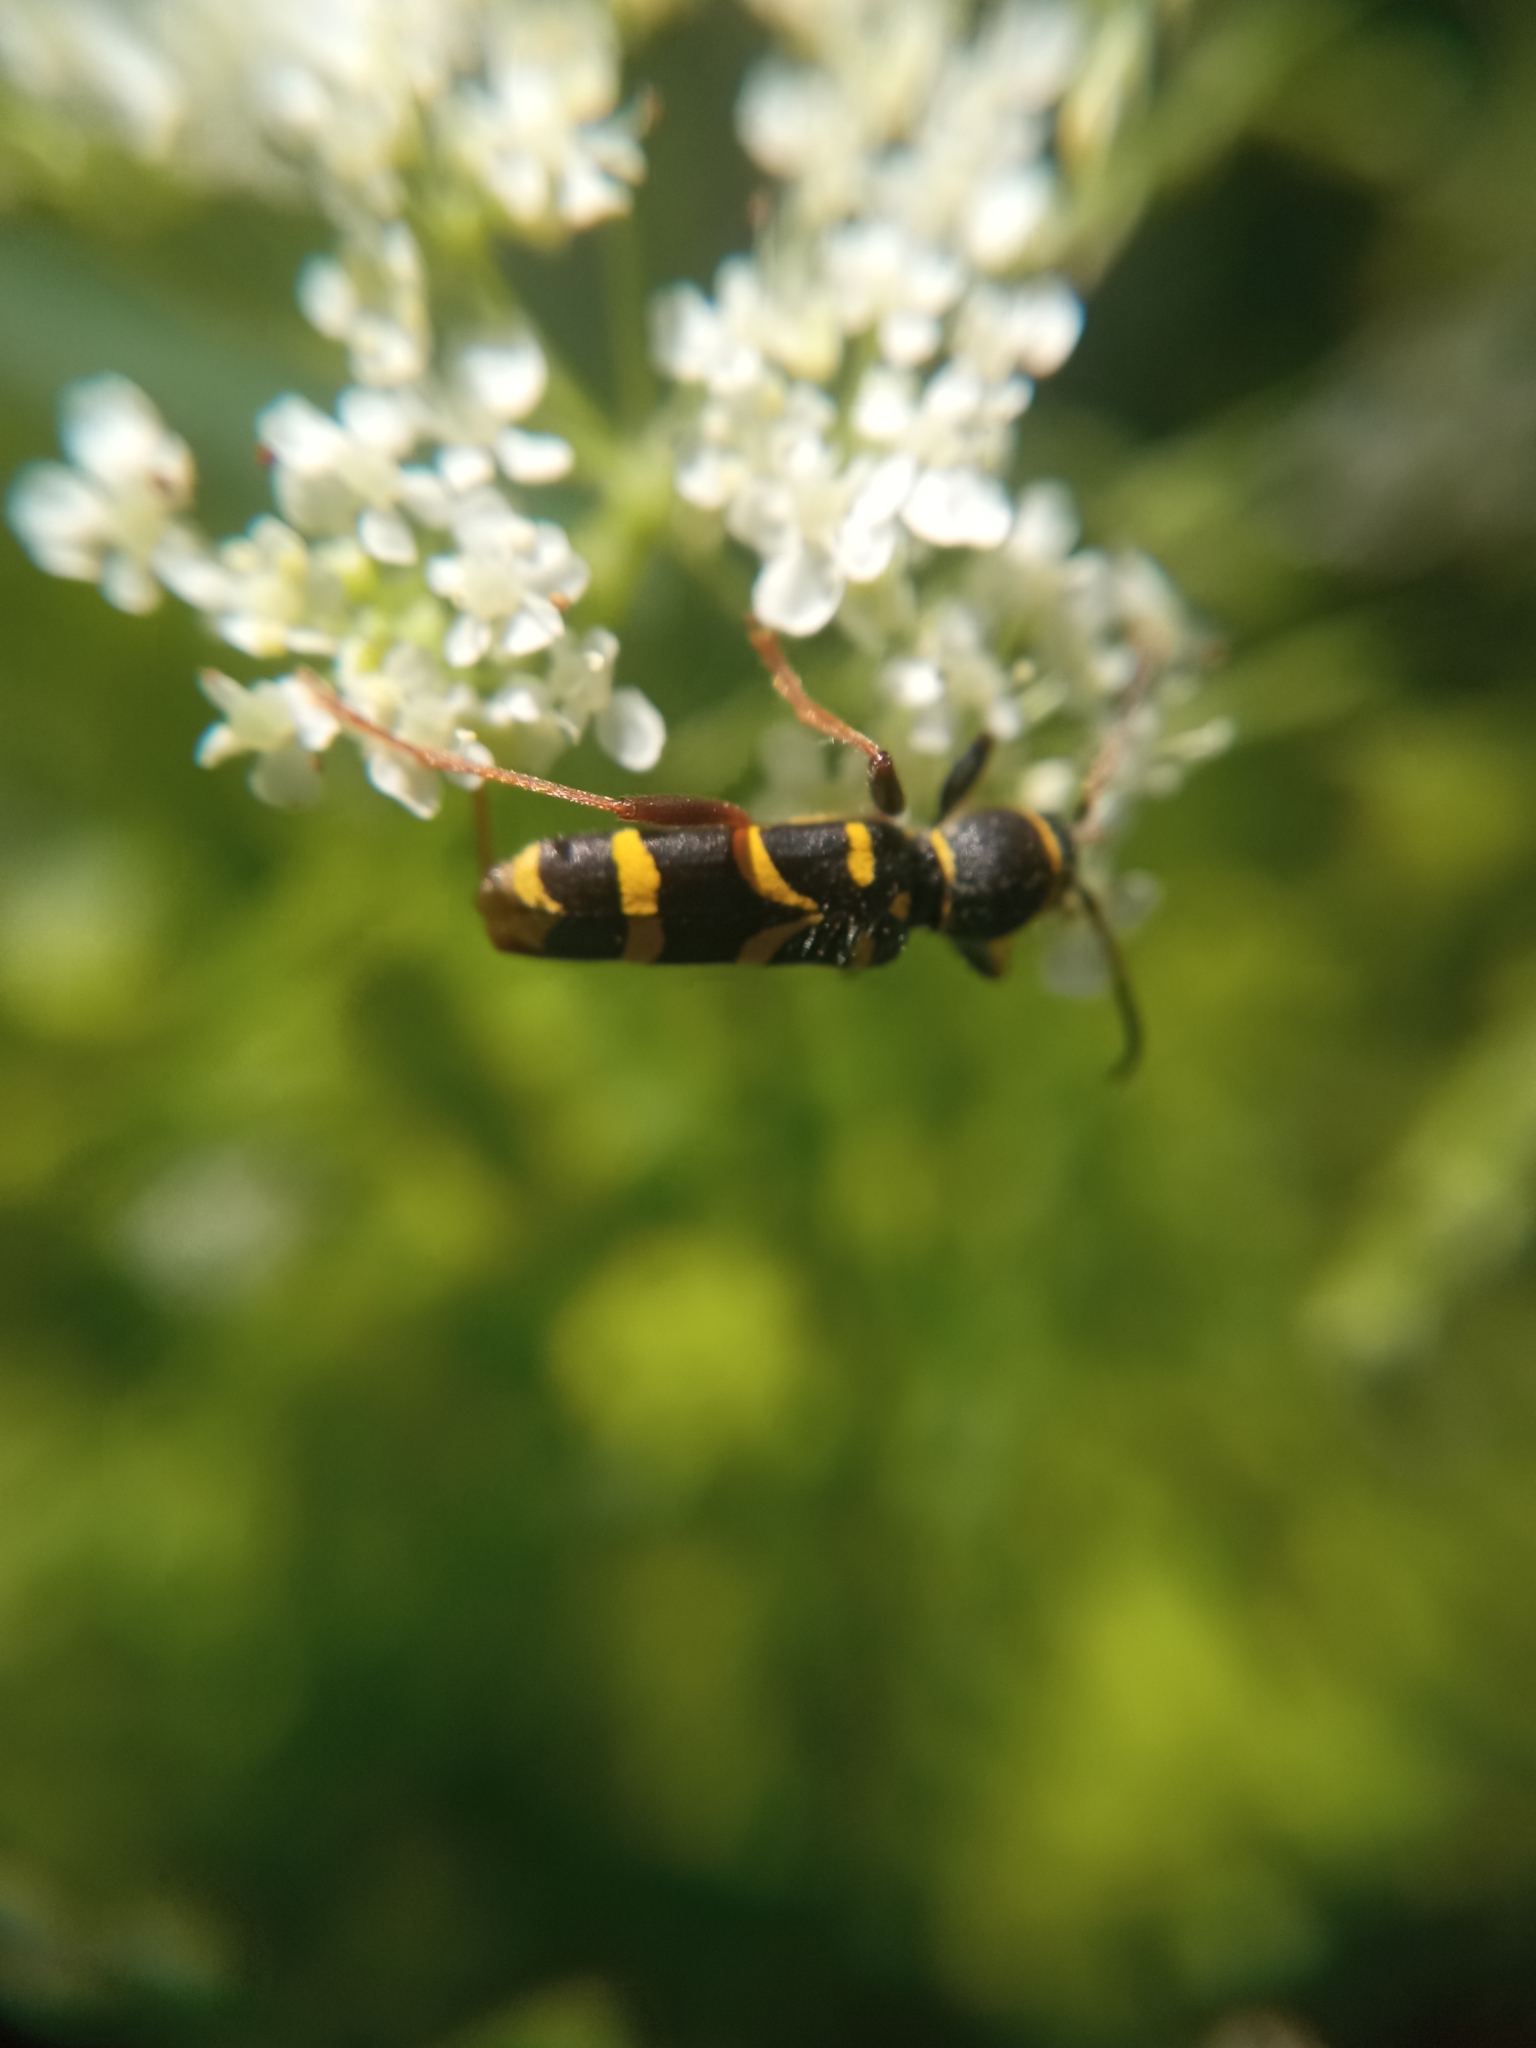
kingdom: Animalia
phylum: Arthropoda
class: Insecta
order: Coleoptera
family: Cerambycidae
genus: Clytus
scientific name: Clytus arietis
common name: Wasp beetle
